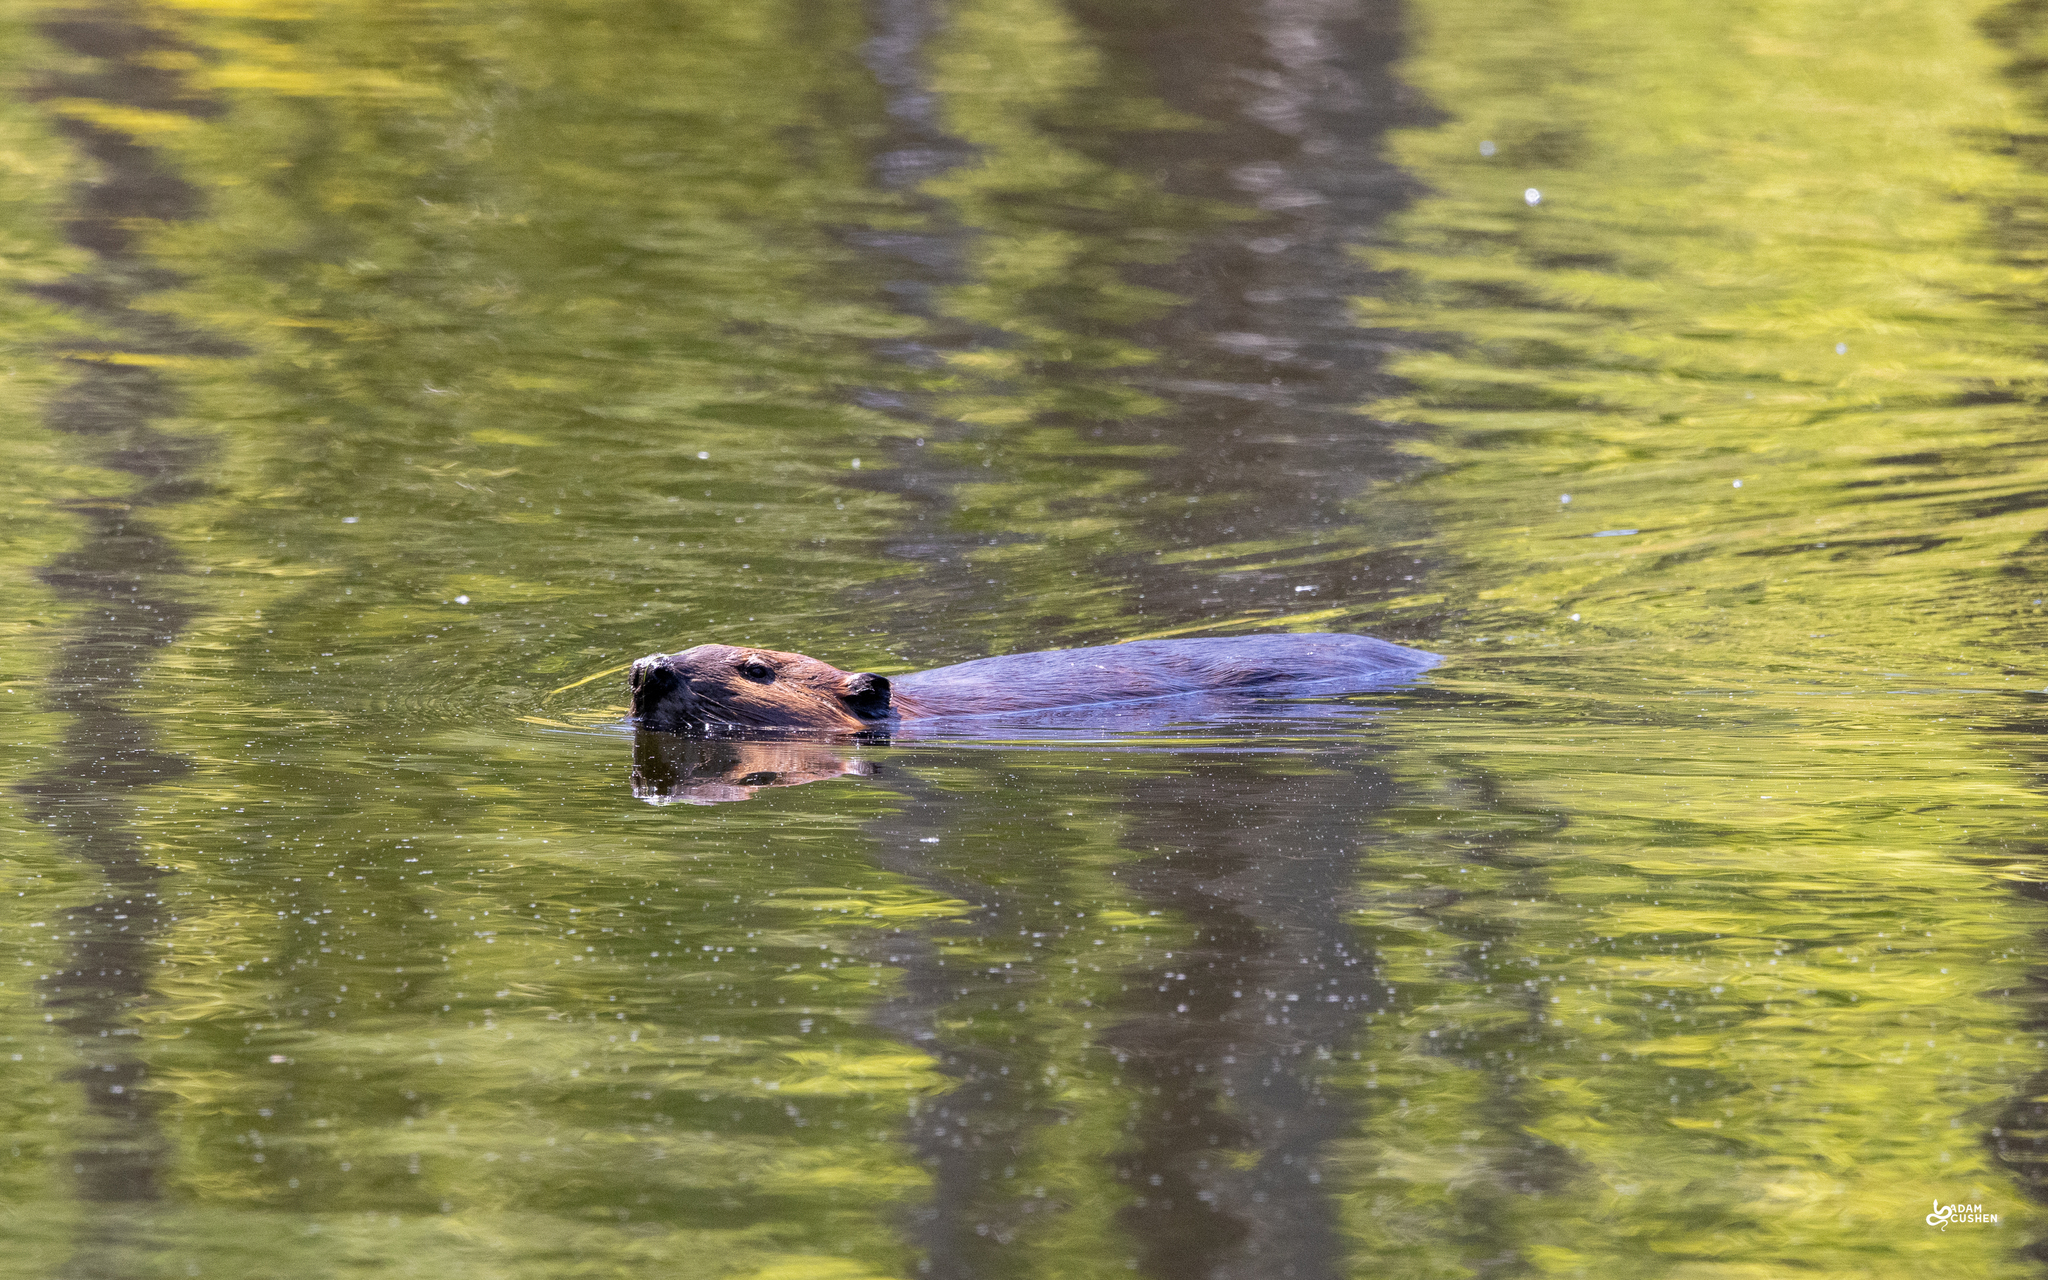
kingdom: Animalia
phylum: Chordata
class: Mammalia
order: Rodentia
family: Castoridae
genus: Castor
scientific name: Castor canadensis
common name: American beaver
